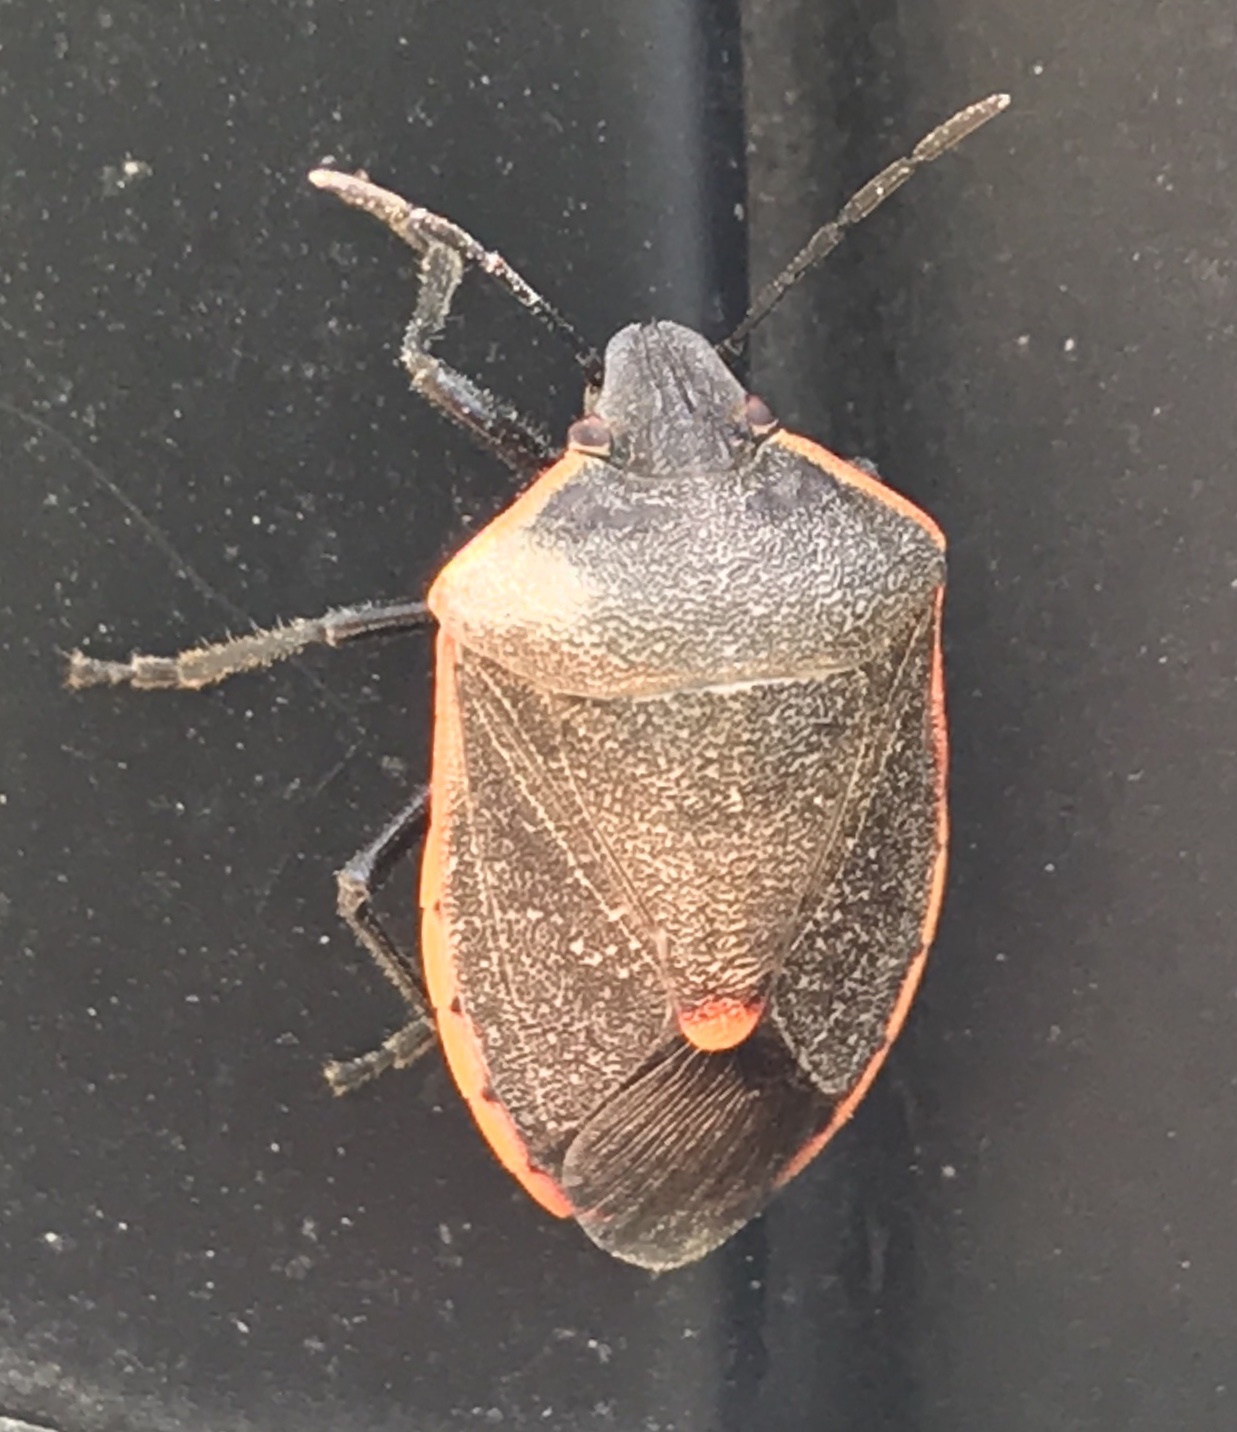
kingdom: Animalia
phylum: Arthropoda
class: Insecta
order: Hemiptera
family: Pentatomidae
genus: Chlorochroa
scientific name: Chlorochroa ligata
